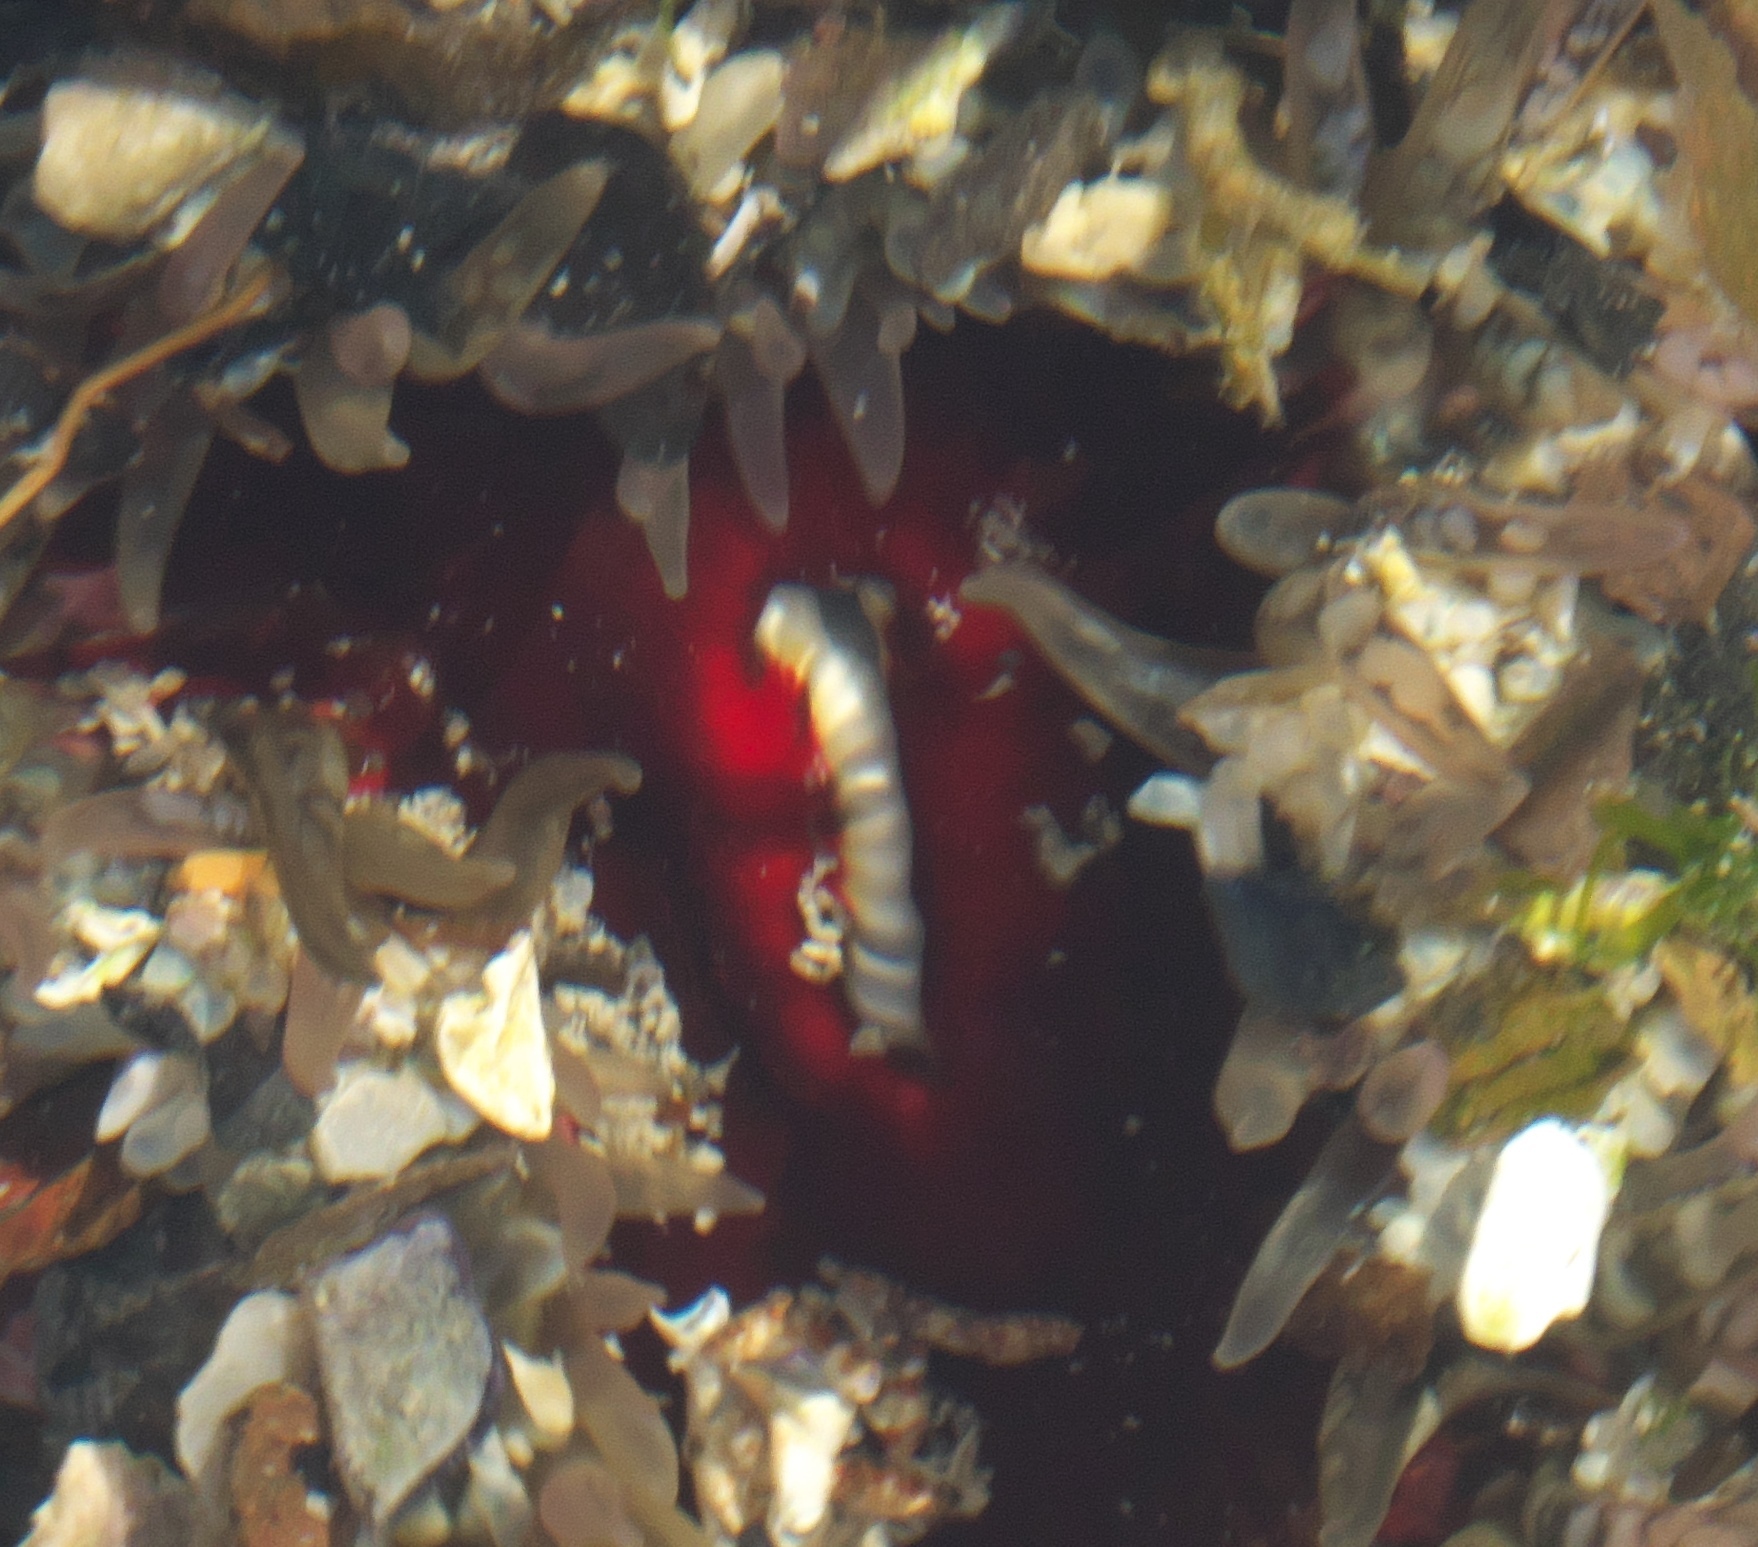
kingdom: Animalia
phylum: Cnidaria
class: Anthozoa
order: Actiniaria
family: Actiniidae
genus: Oulactis
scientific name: Oulactis muscosa
